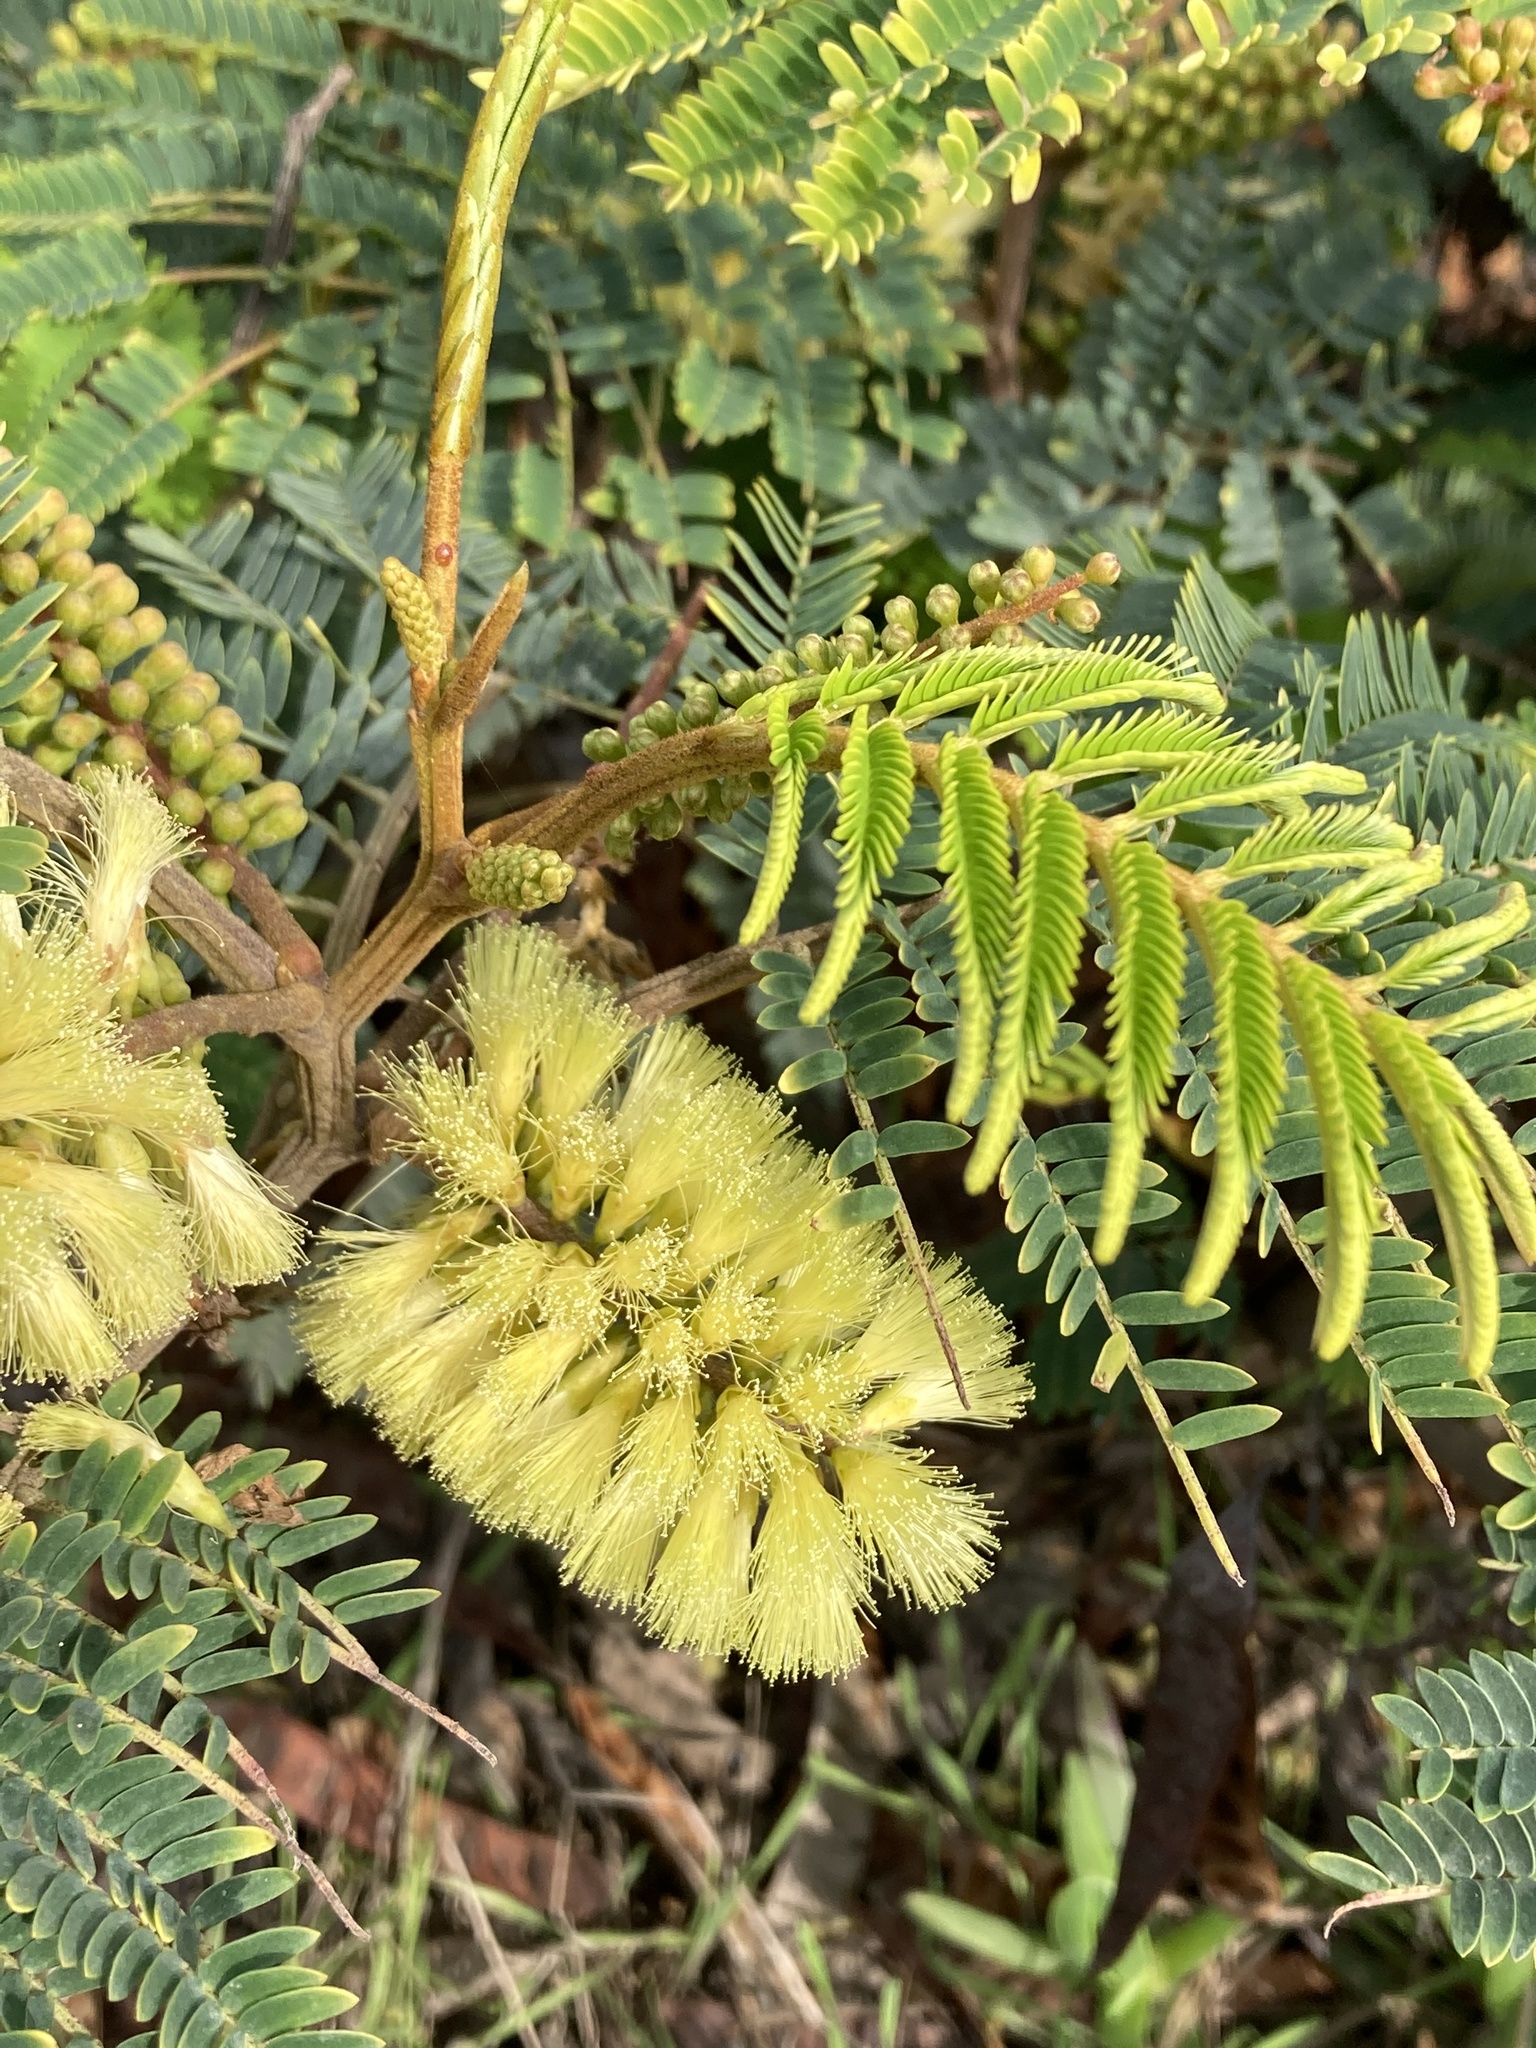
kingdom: Plantae
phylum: Tracheophyta
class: Magnoliopsida
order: Fabales
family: Fabaceae
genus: Paraserianthes
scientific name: Paraserianthes lophantha
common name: Plume albizia
